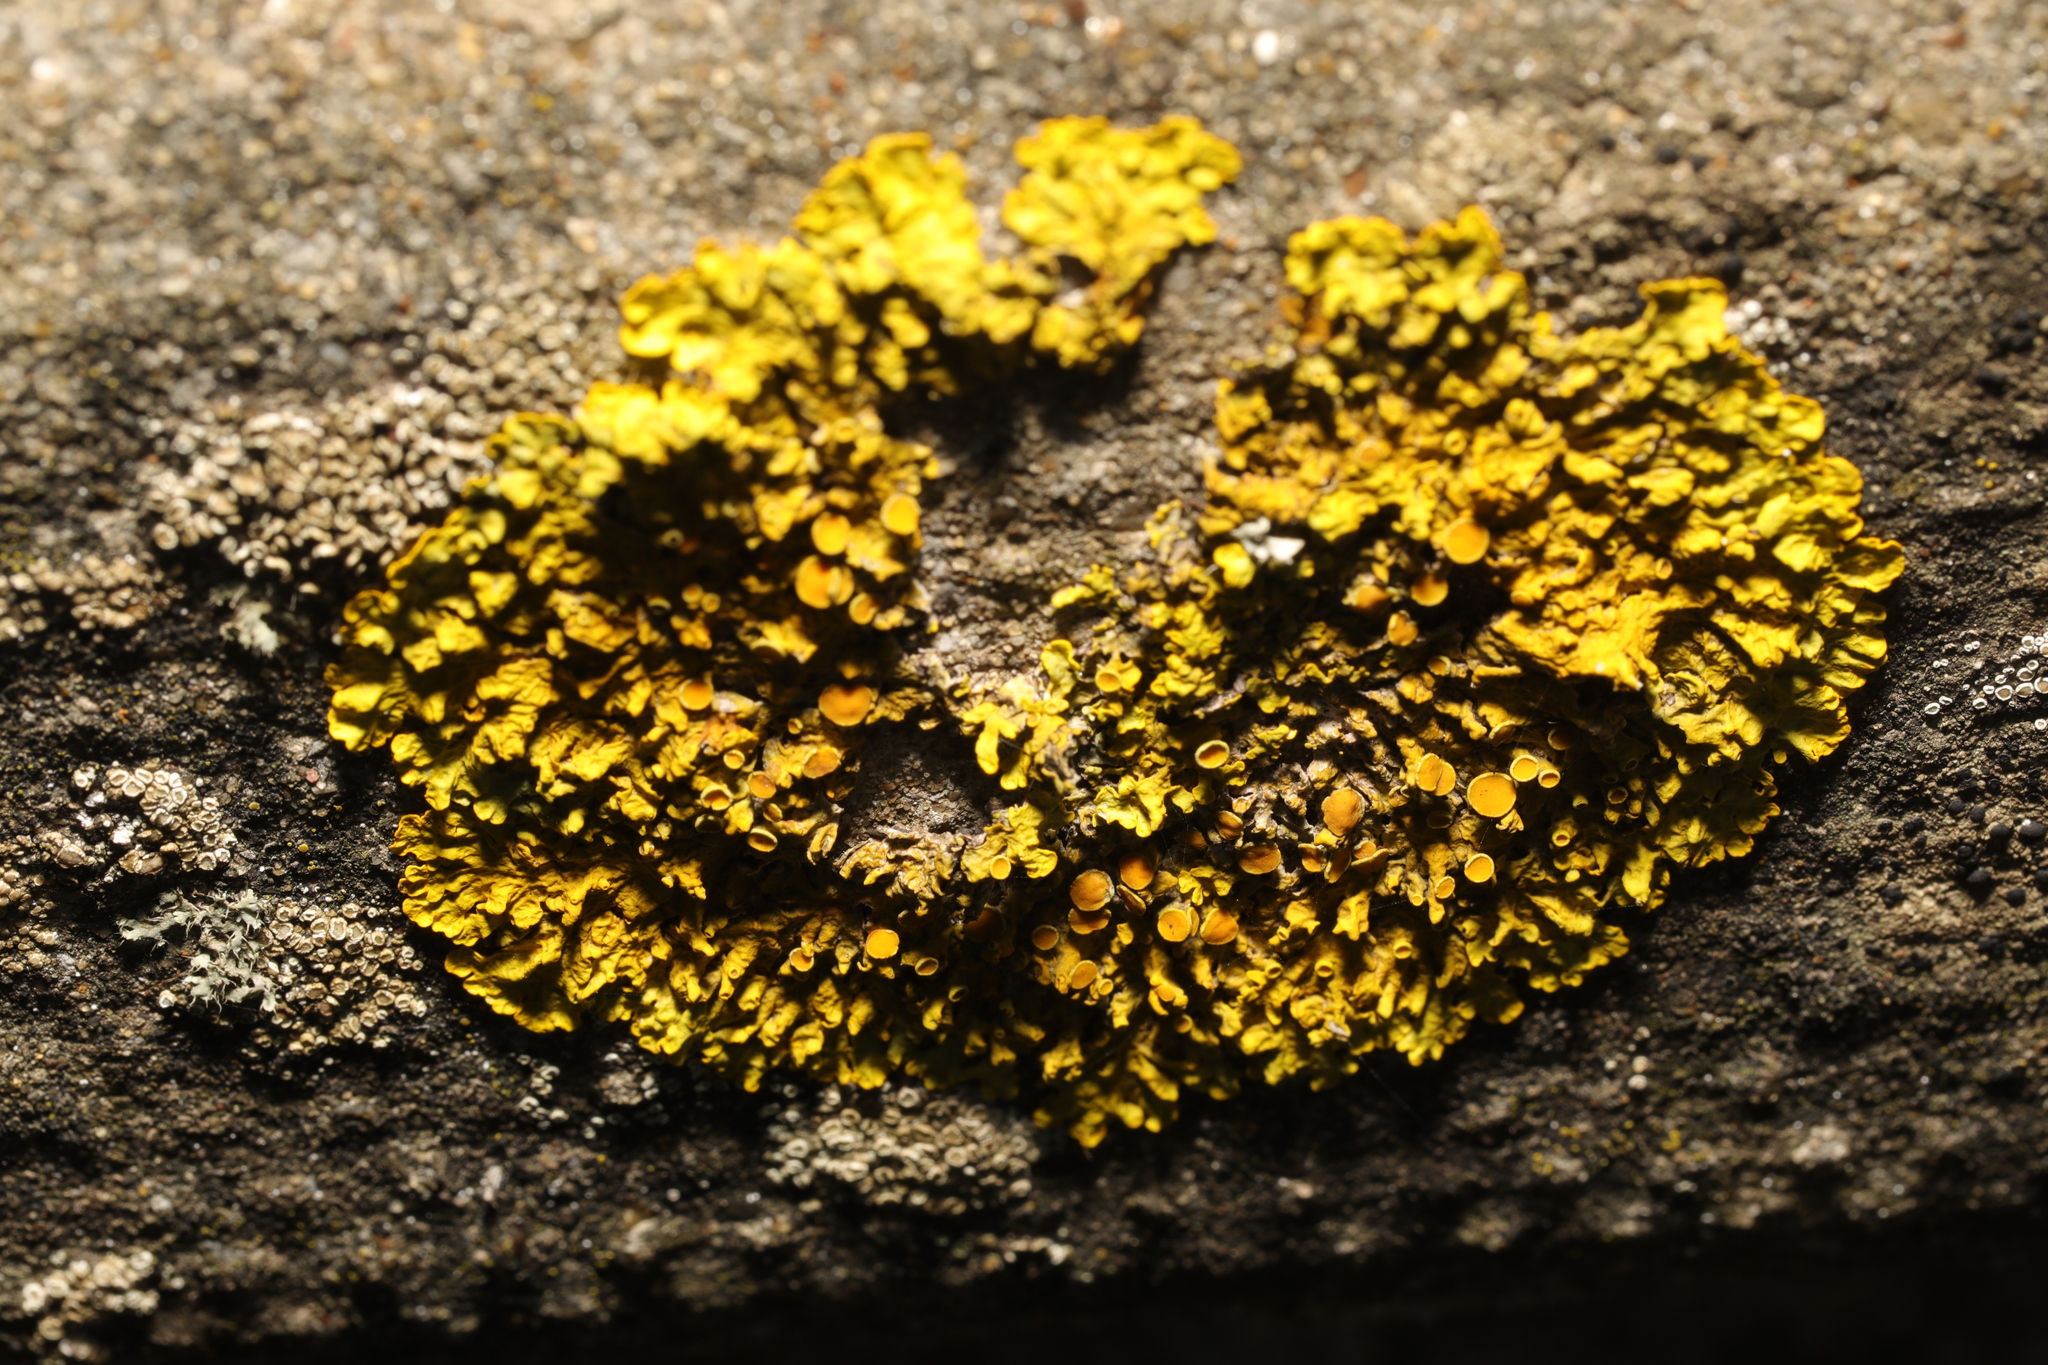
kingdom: Fungi
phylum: Ascomycota
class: Lecanoromycetes
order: Teloschistales
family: Teloschistaceae
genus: Xanthoria
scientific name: Xanthoria parietina
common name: Common orange lichen
